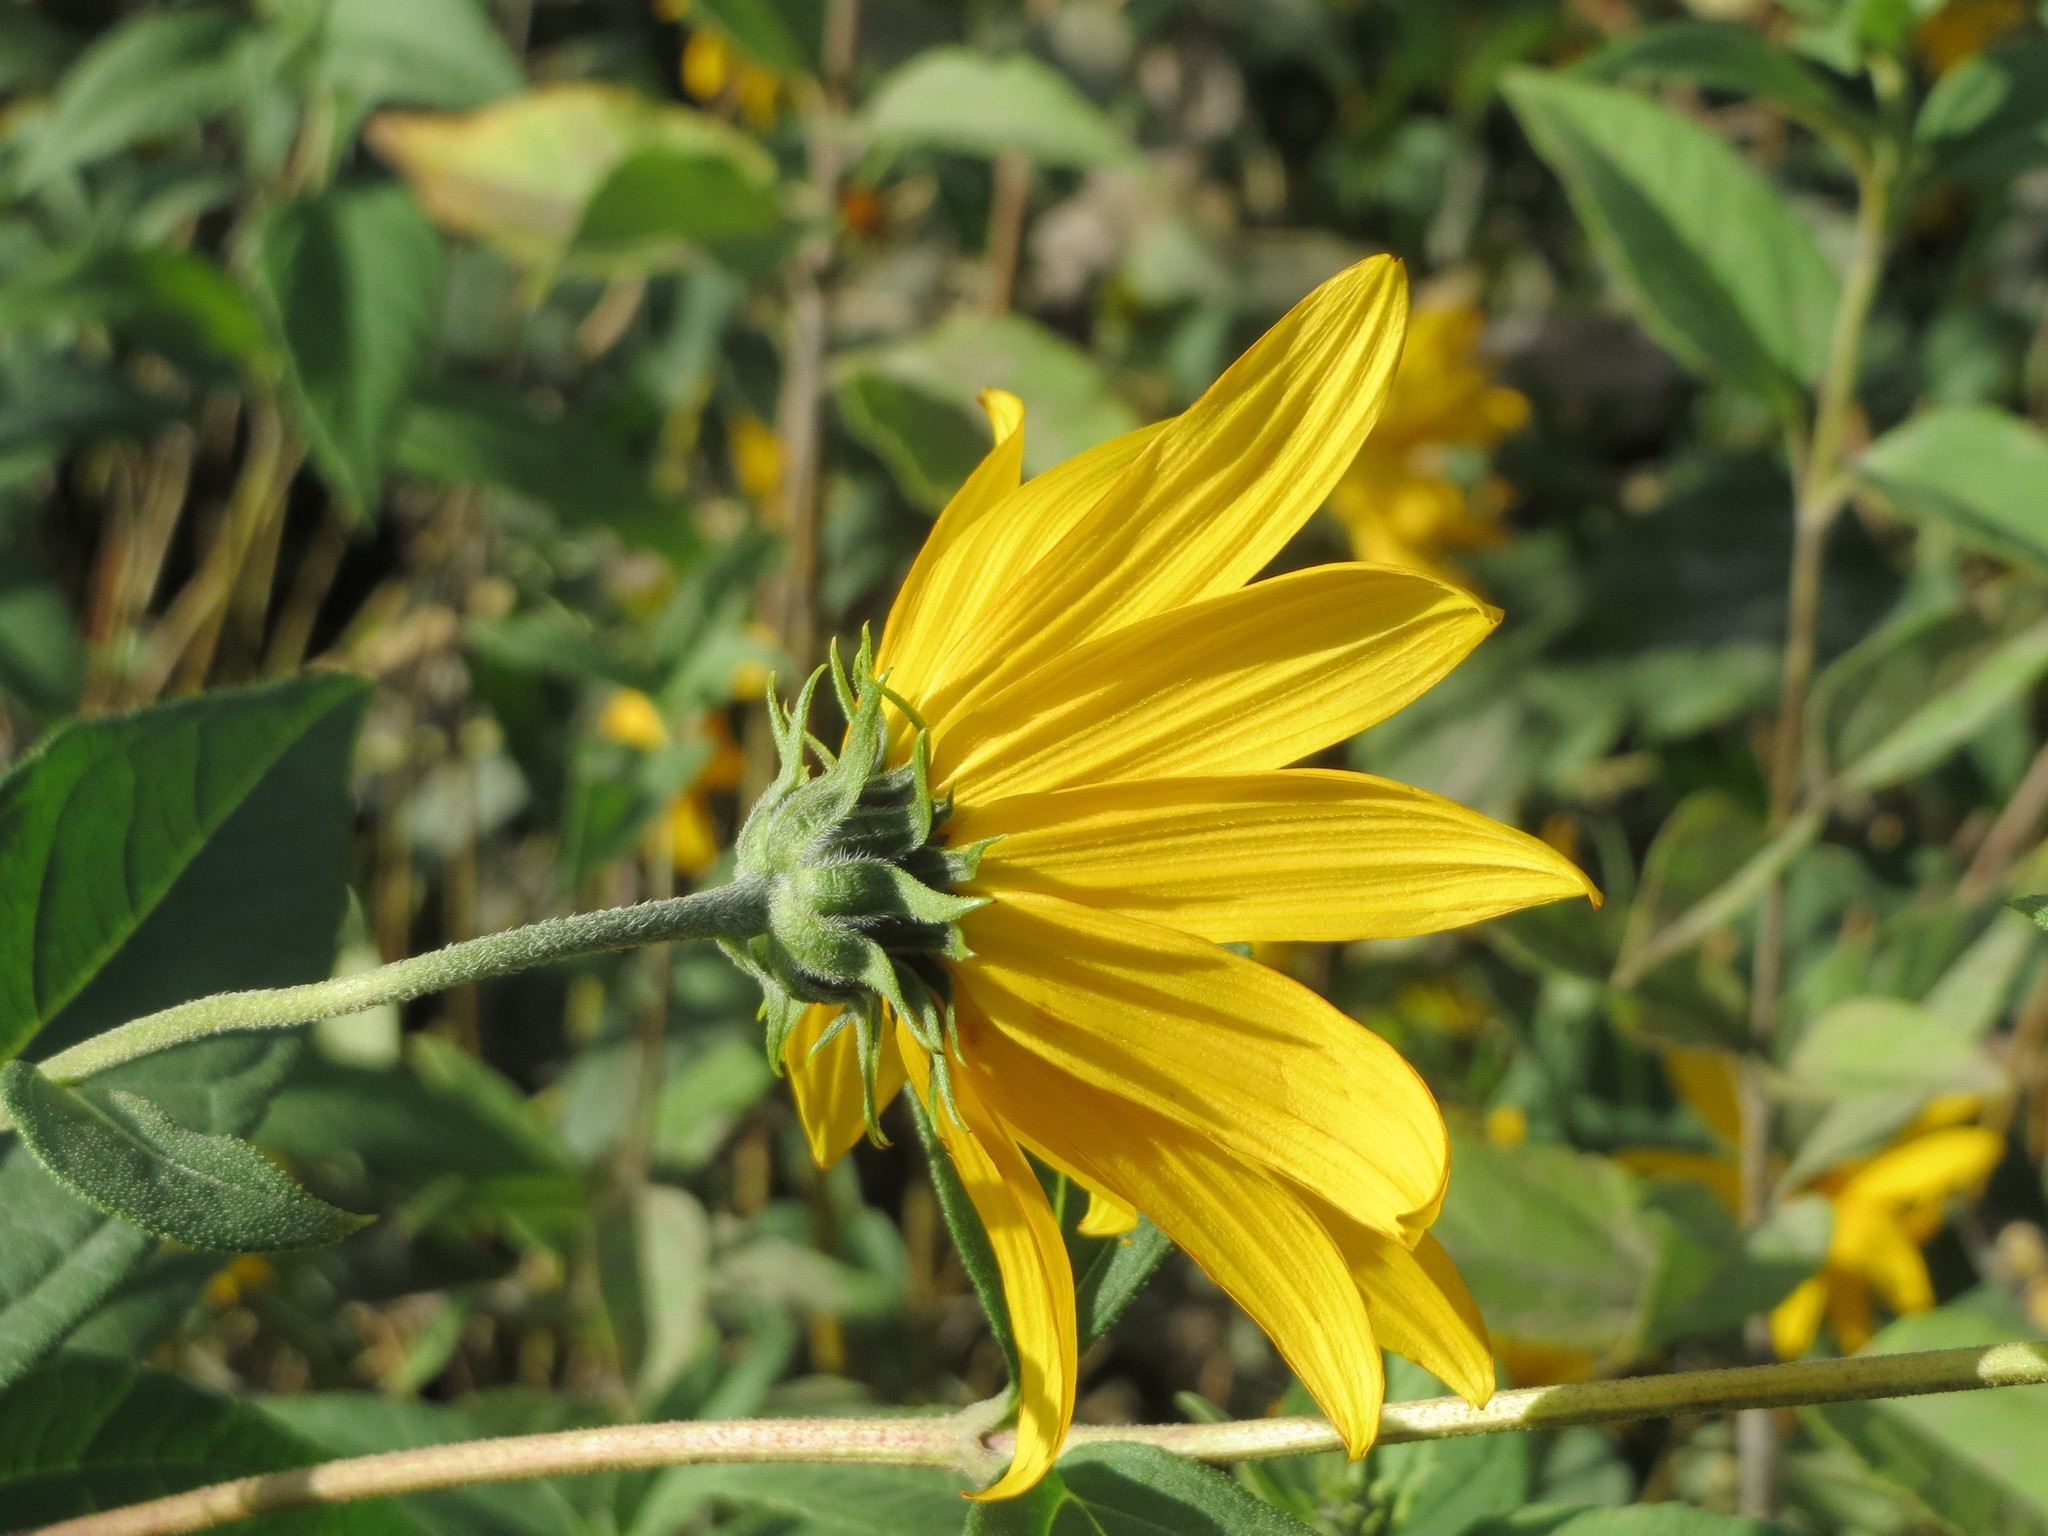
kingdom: Plantae
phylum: Tracheophyta
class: Magnoliopsida
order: Asterales
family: Asteraceae
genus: Helianthus
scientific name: Helianthus tuberosus
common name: Jerusalem artichoke
